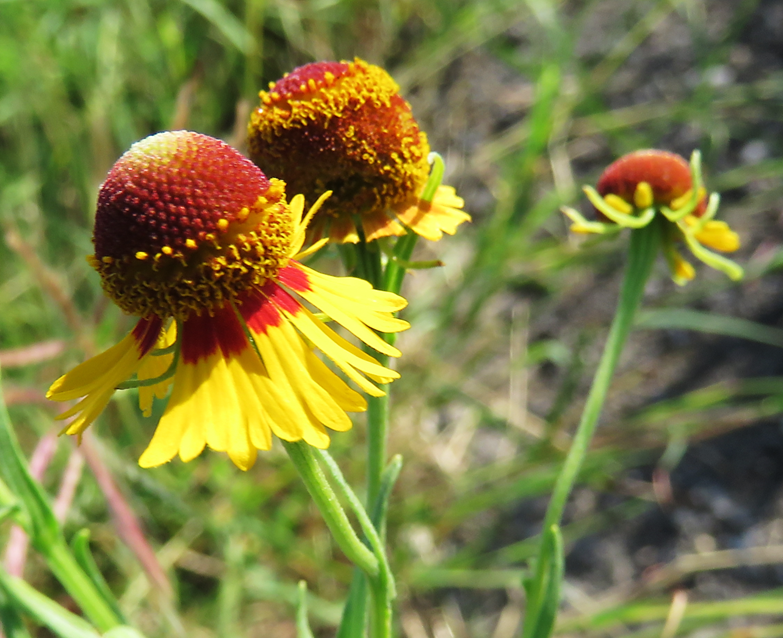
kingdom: Plantae
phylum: Tracheophyta
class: Magnoliopsida
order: Asterales
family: Asteraceae
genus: Helenium
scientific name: Helenium microcephalum
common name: Smallhead sneezeweed
